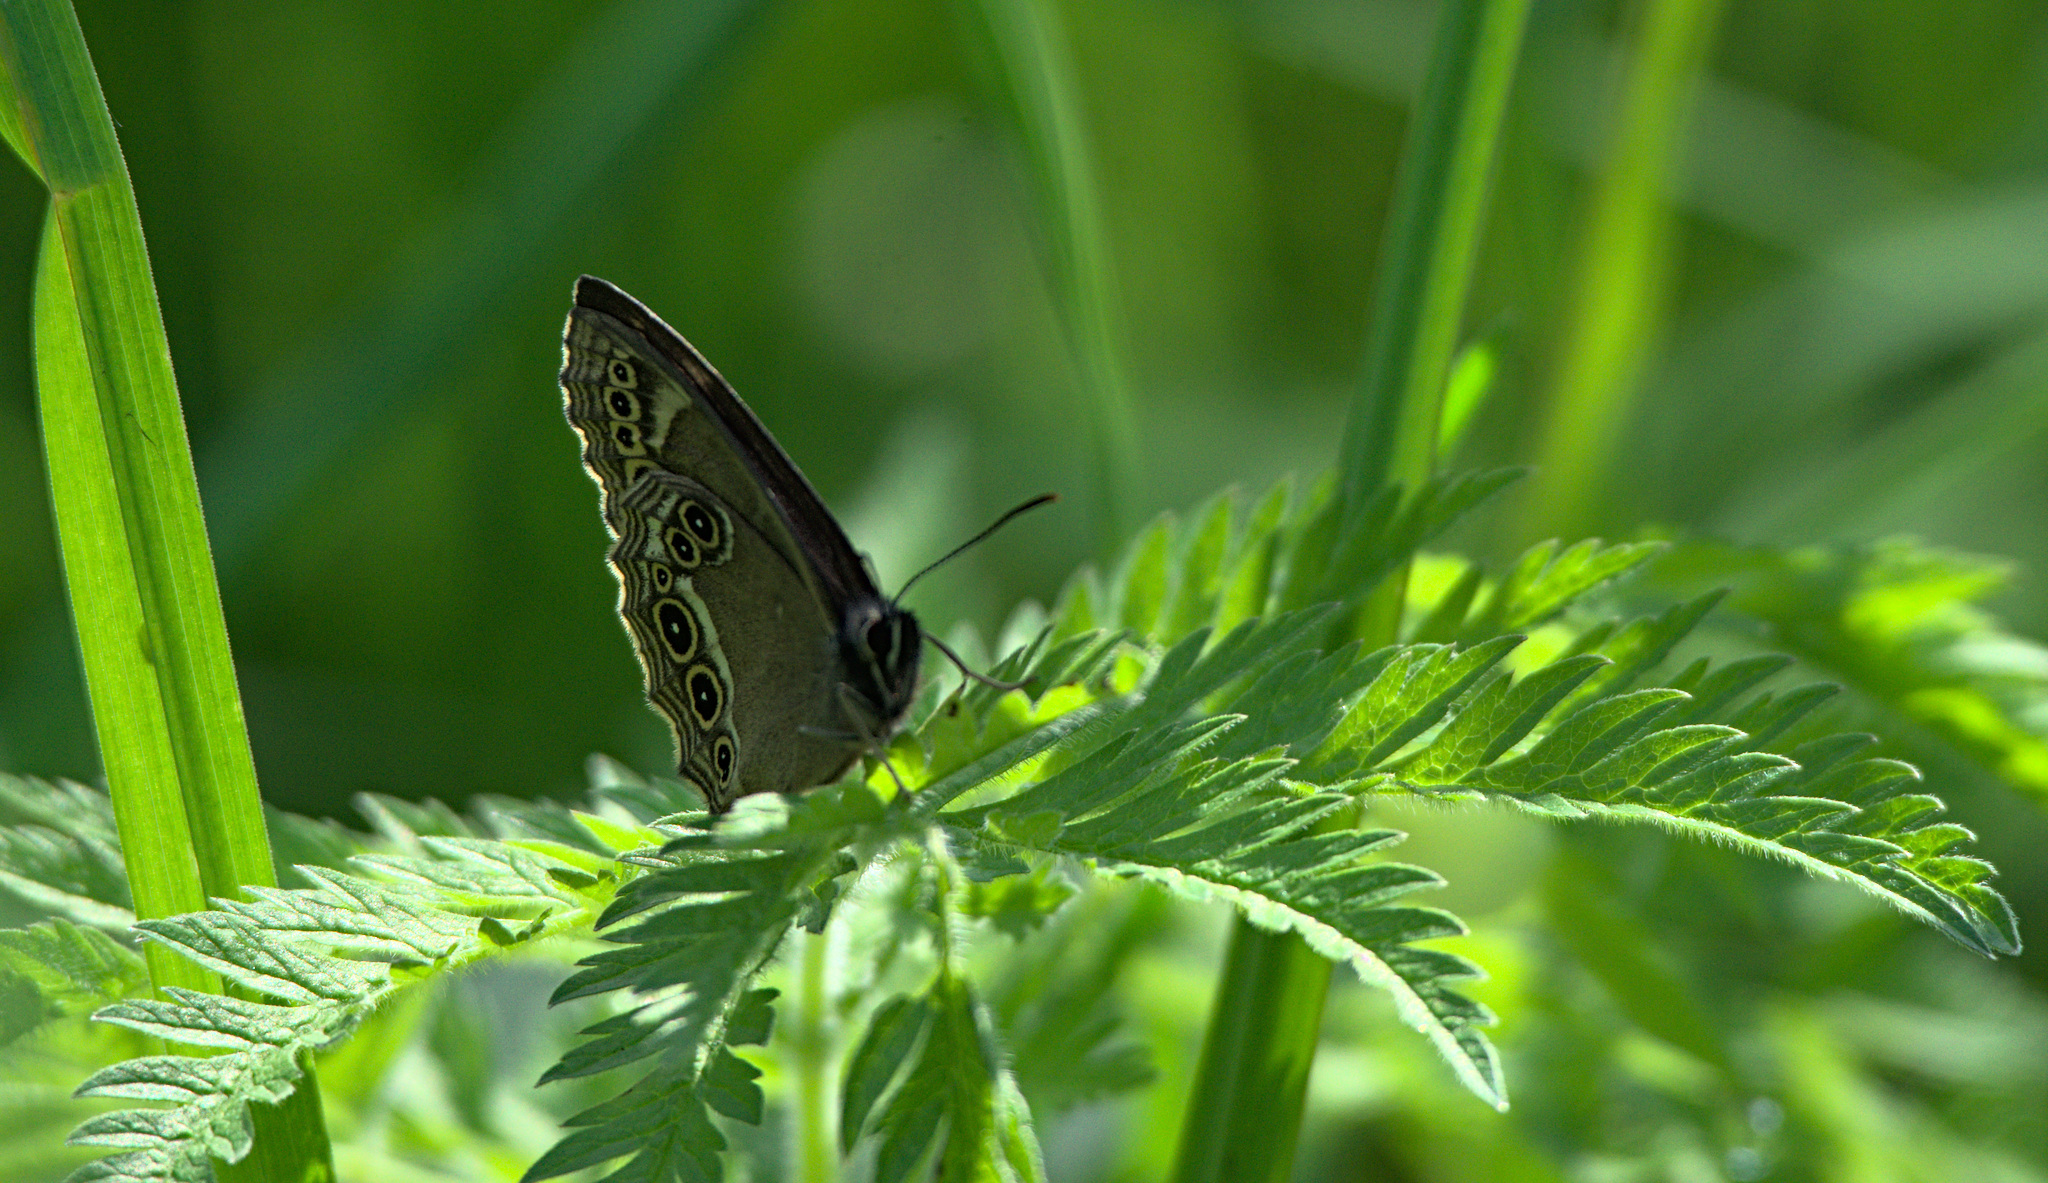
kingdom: Animalia
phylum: Arthropoda
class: Insecta
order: Lepidoptera
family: Nymphalidae
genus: Pararge
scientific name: Pararge Lopinga achine
